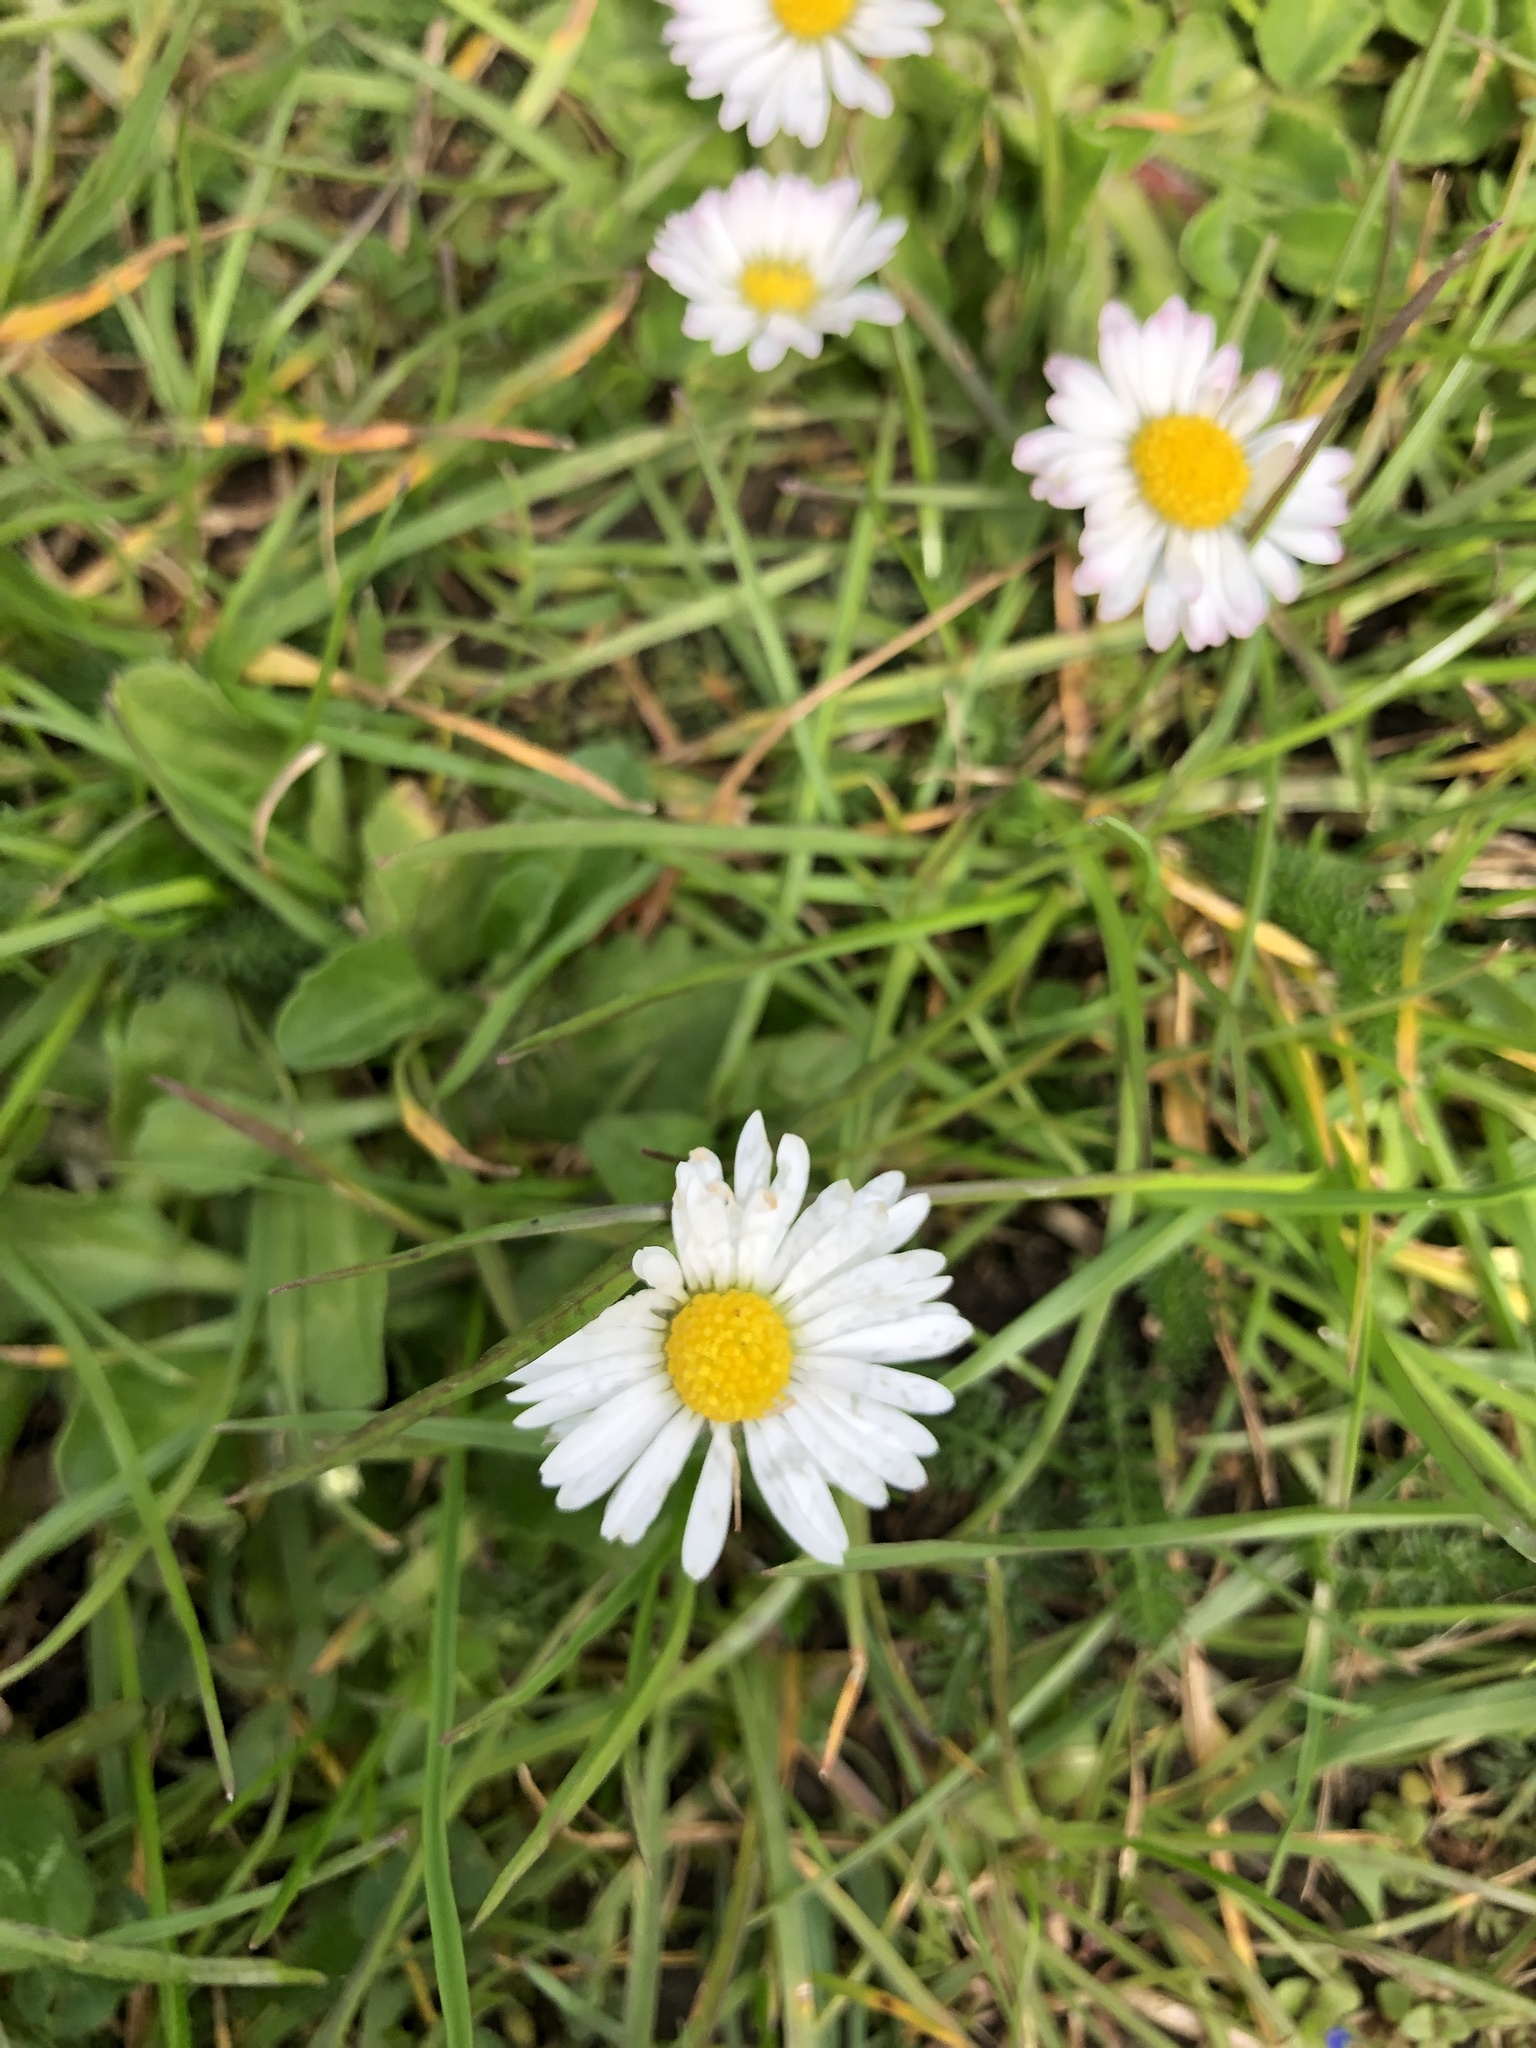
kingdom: Plantae
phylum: Tracheophyta
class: Magnoliopsida
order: Asterales
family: Asteraceae
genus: Bellis
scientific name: Bellis perennis
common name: Lawndaisy
